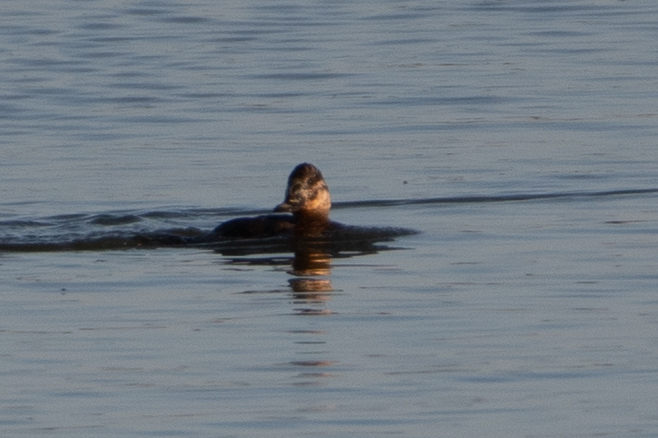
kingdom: Animalia
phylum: Chordata
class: Aves
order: Anseriformes
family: Anatidae
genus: Oxyura
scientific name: Oxyura jamaicensis
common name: Ruddy duck
